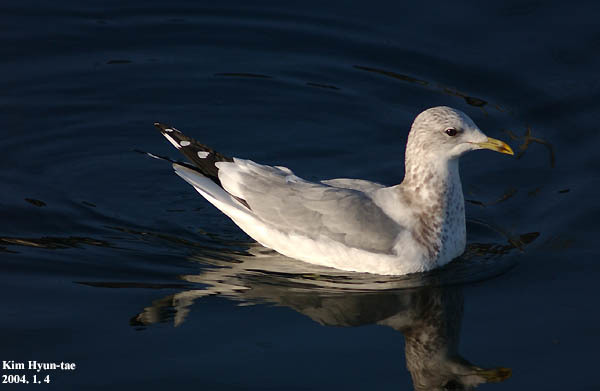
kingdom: Animalia
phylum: Chordata
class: Aves
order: Charadriiformes
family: Laridae
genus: Larus
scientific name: Larus canus
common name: Mew gull
